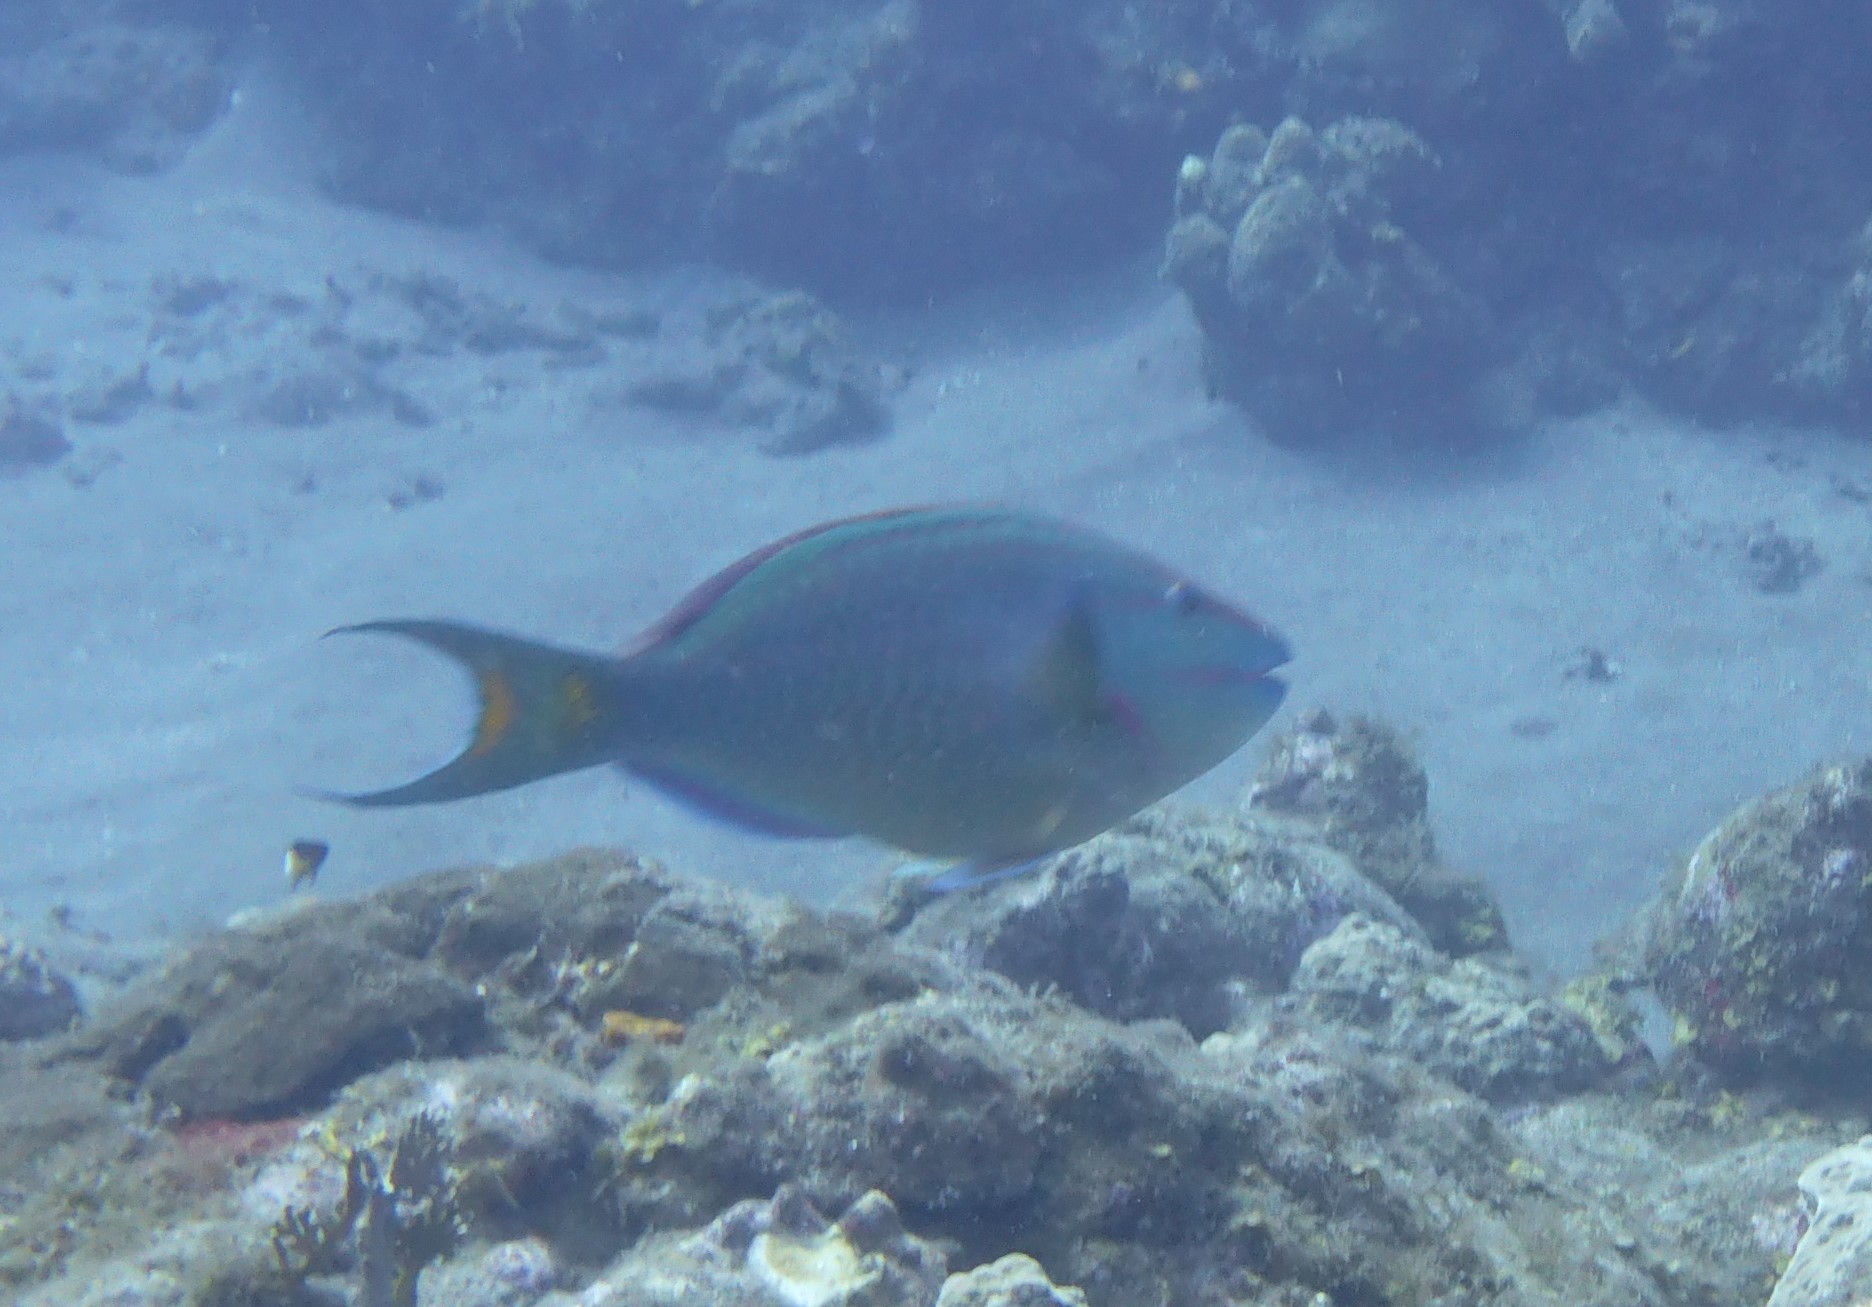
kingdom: Animalia
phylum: Chordata
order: Perciformes
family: Scaridae
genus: Sparisoma
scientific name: Sparisoma viride
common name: Stoplight parrotfish
